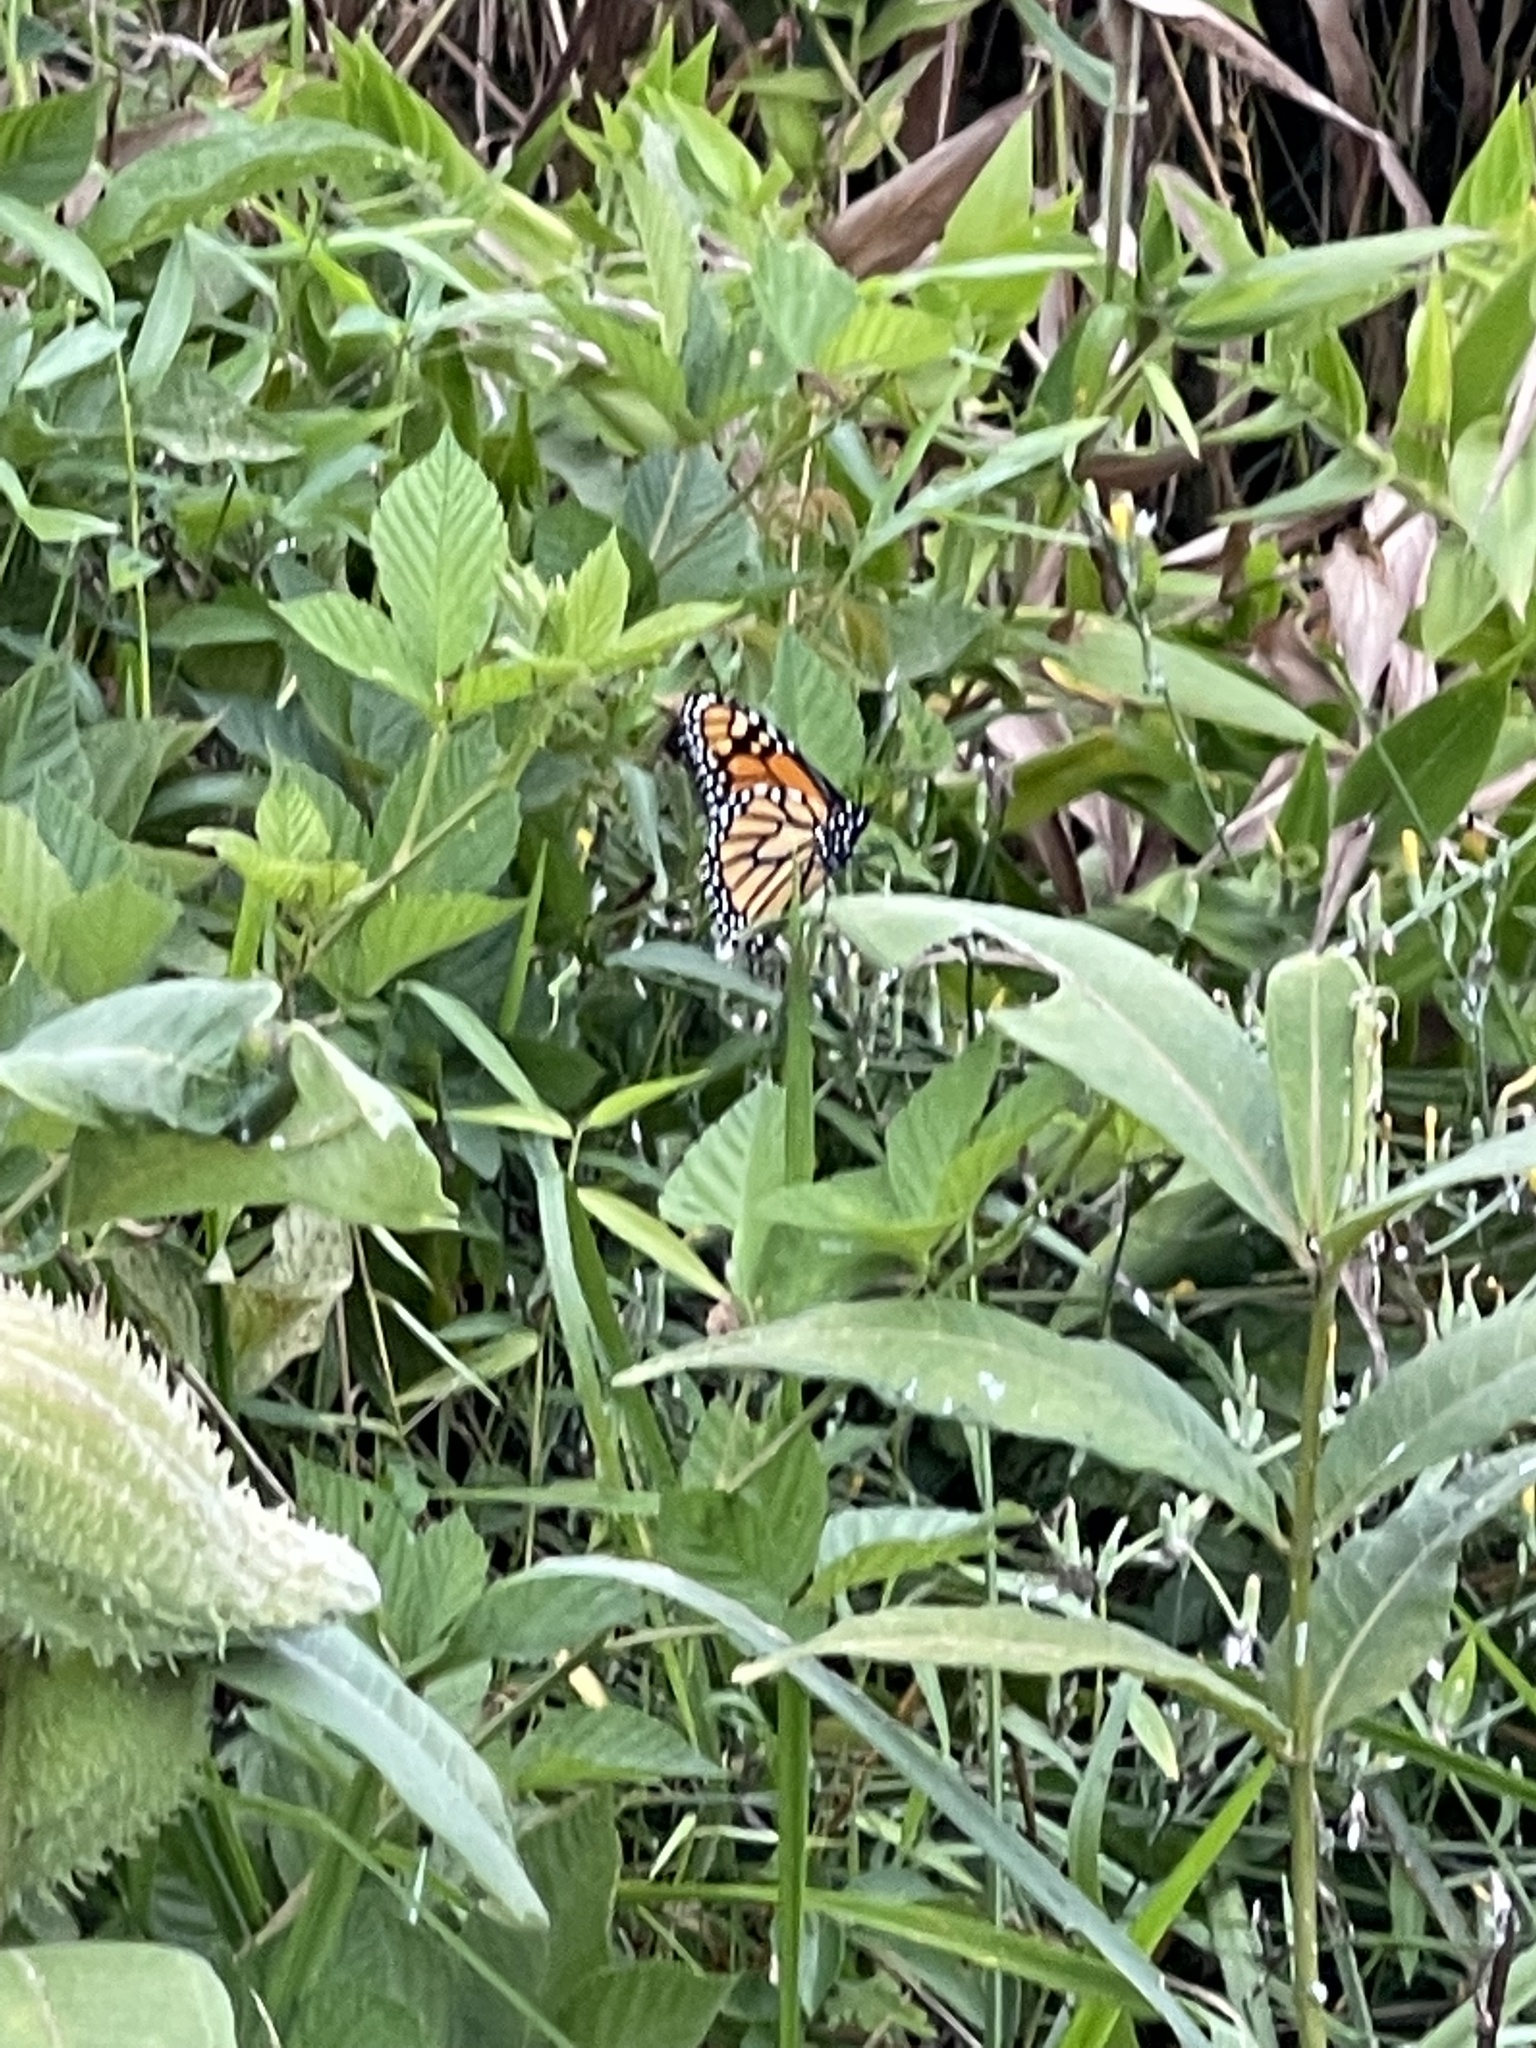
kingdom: Animalia
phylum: Arthropoda
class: Insecta
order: Lepidoptera
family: Nymphalidae
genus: Danaus
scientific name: Danaus plexippus
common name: Monarch
